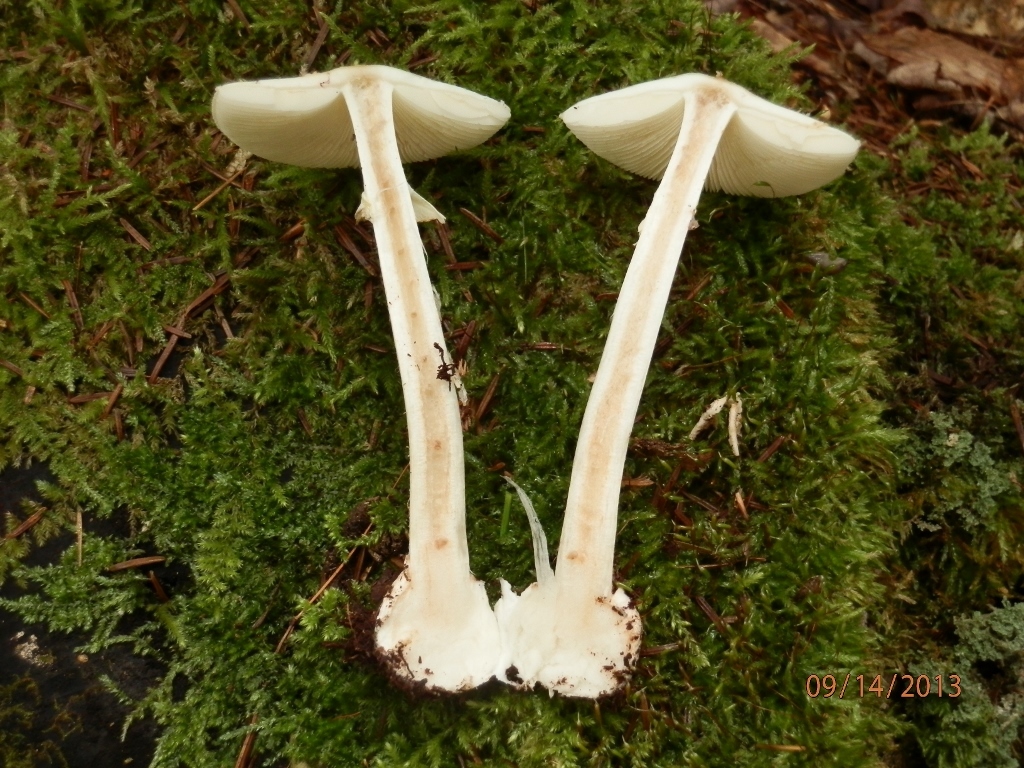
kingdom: Fungi
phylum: Basidiomycota
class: Agaricomycetes
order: Agaricales
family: Amanitaceae
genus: Amanita
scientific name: Amanita citrina
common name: False death-cap
